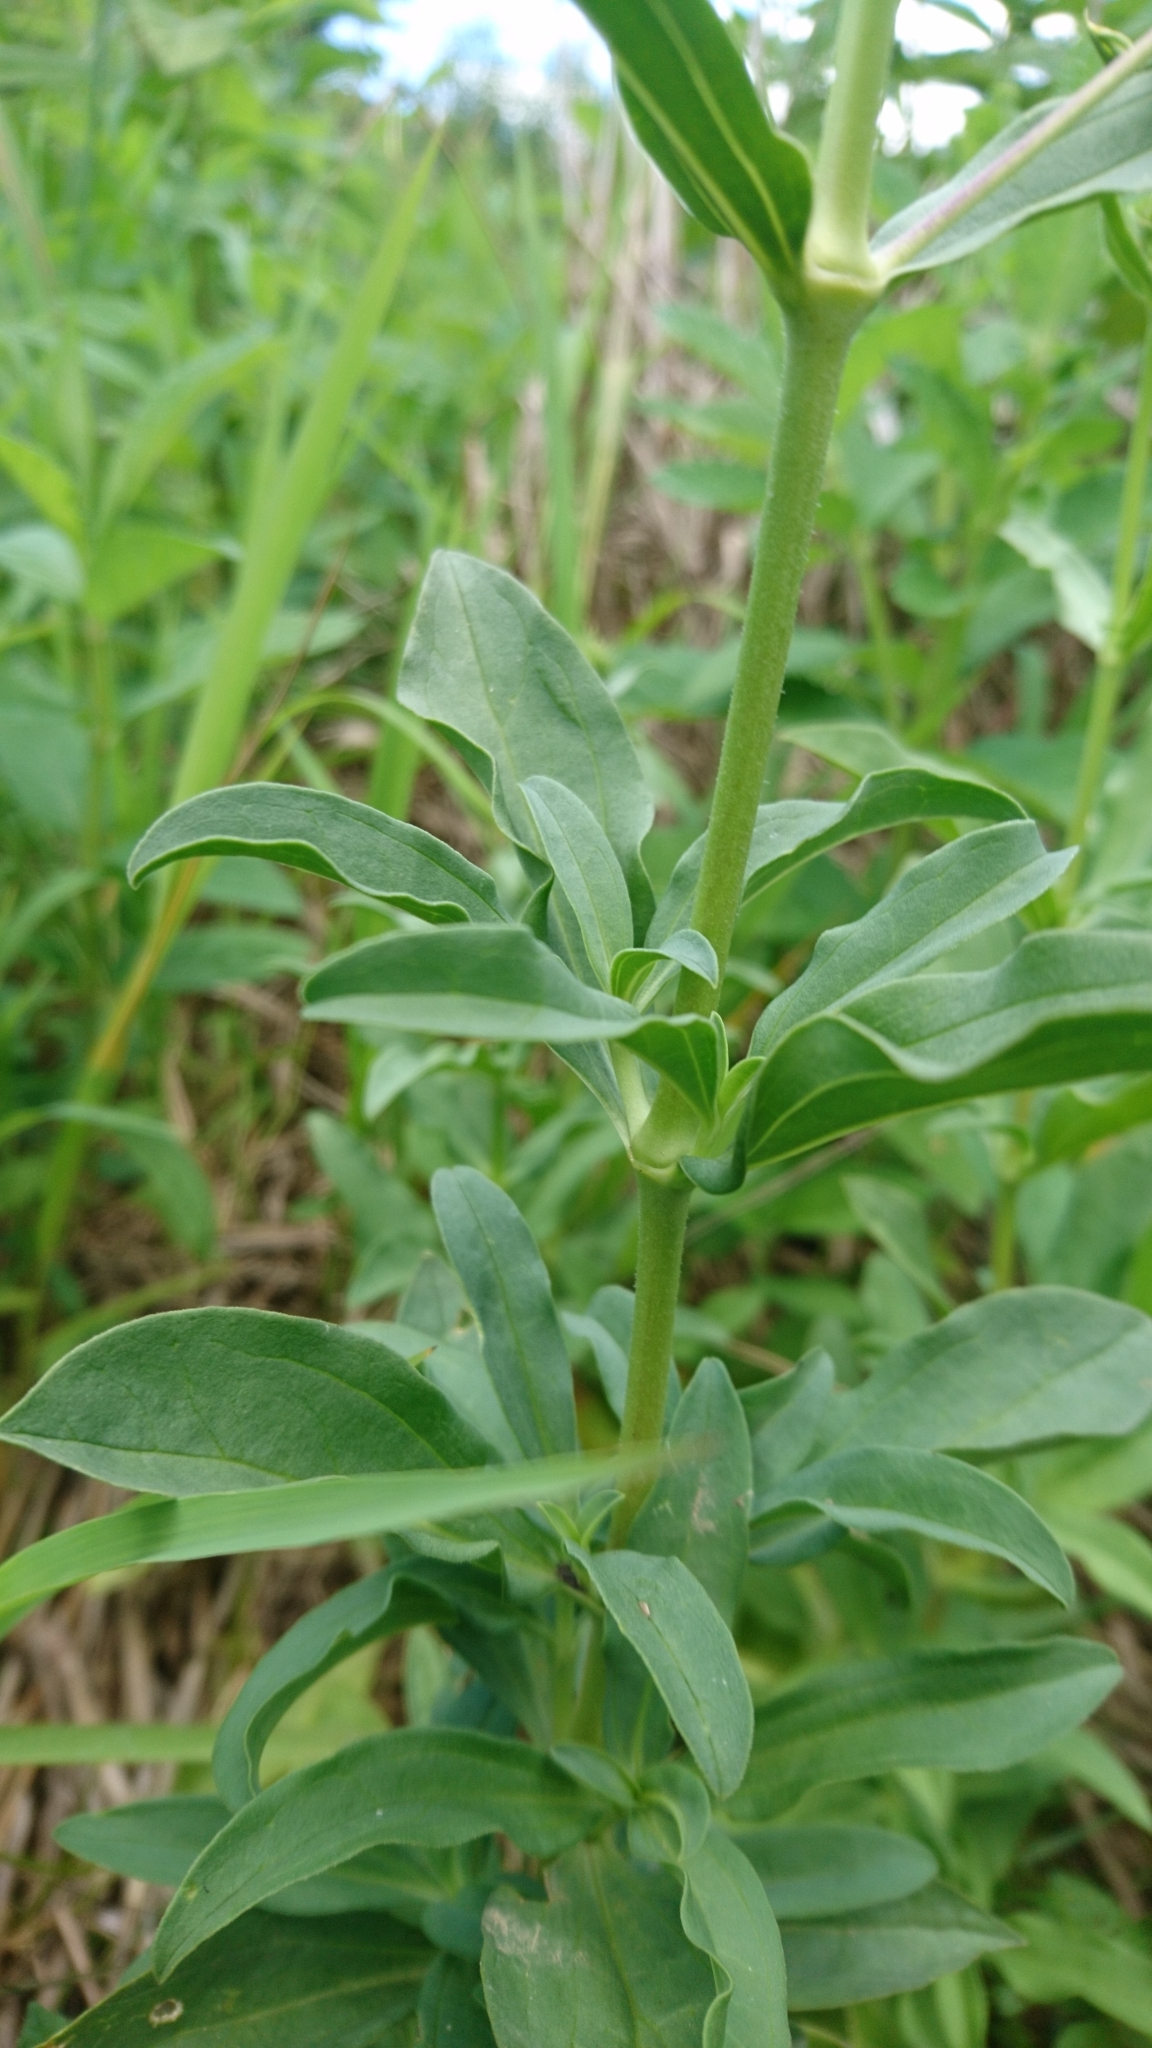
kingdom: Plantae
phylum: Tracheophyta
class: Magnoliopsida
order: Caryophyllales
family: Caryophyllaceae
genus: Saponaria
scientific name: Saponaria officinalis
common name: Soapwort
